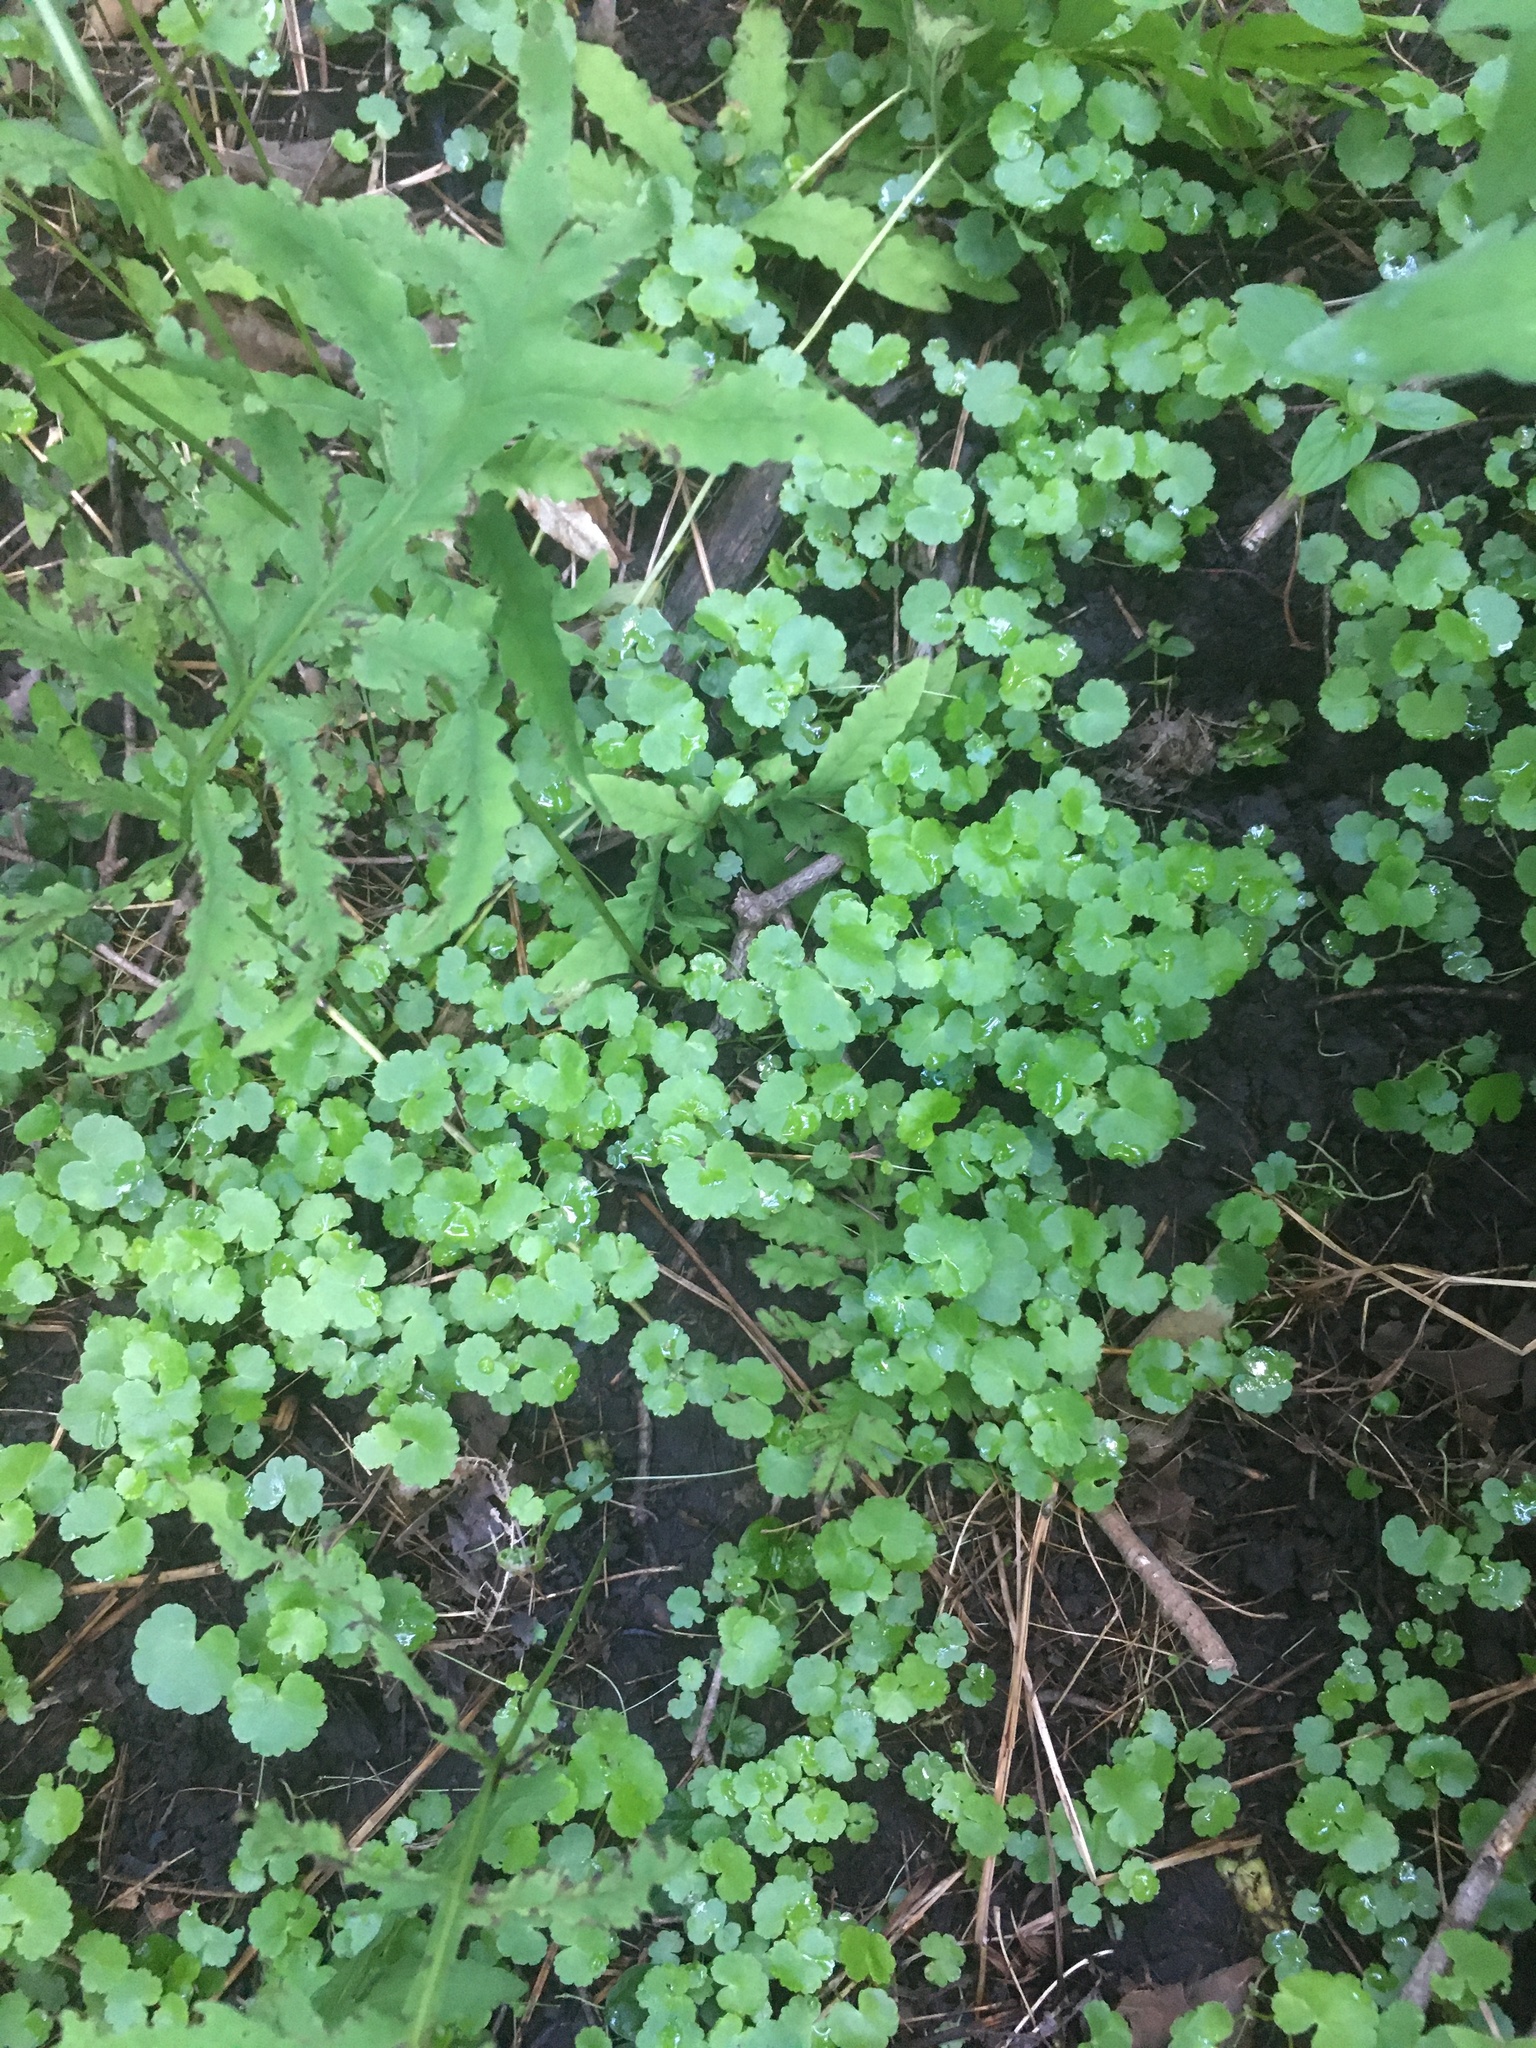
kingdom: Plantae
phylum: Tracheophyta
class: Magnoliopsida
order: Apiales
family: Araliaceae
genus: Hydrocotyle
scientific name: Hydrocotyle americana
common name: American water-pennywort
